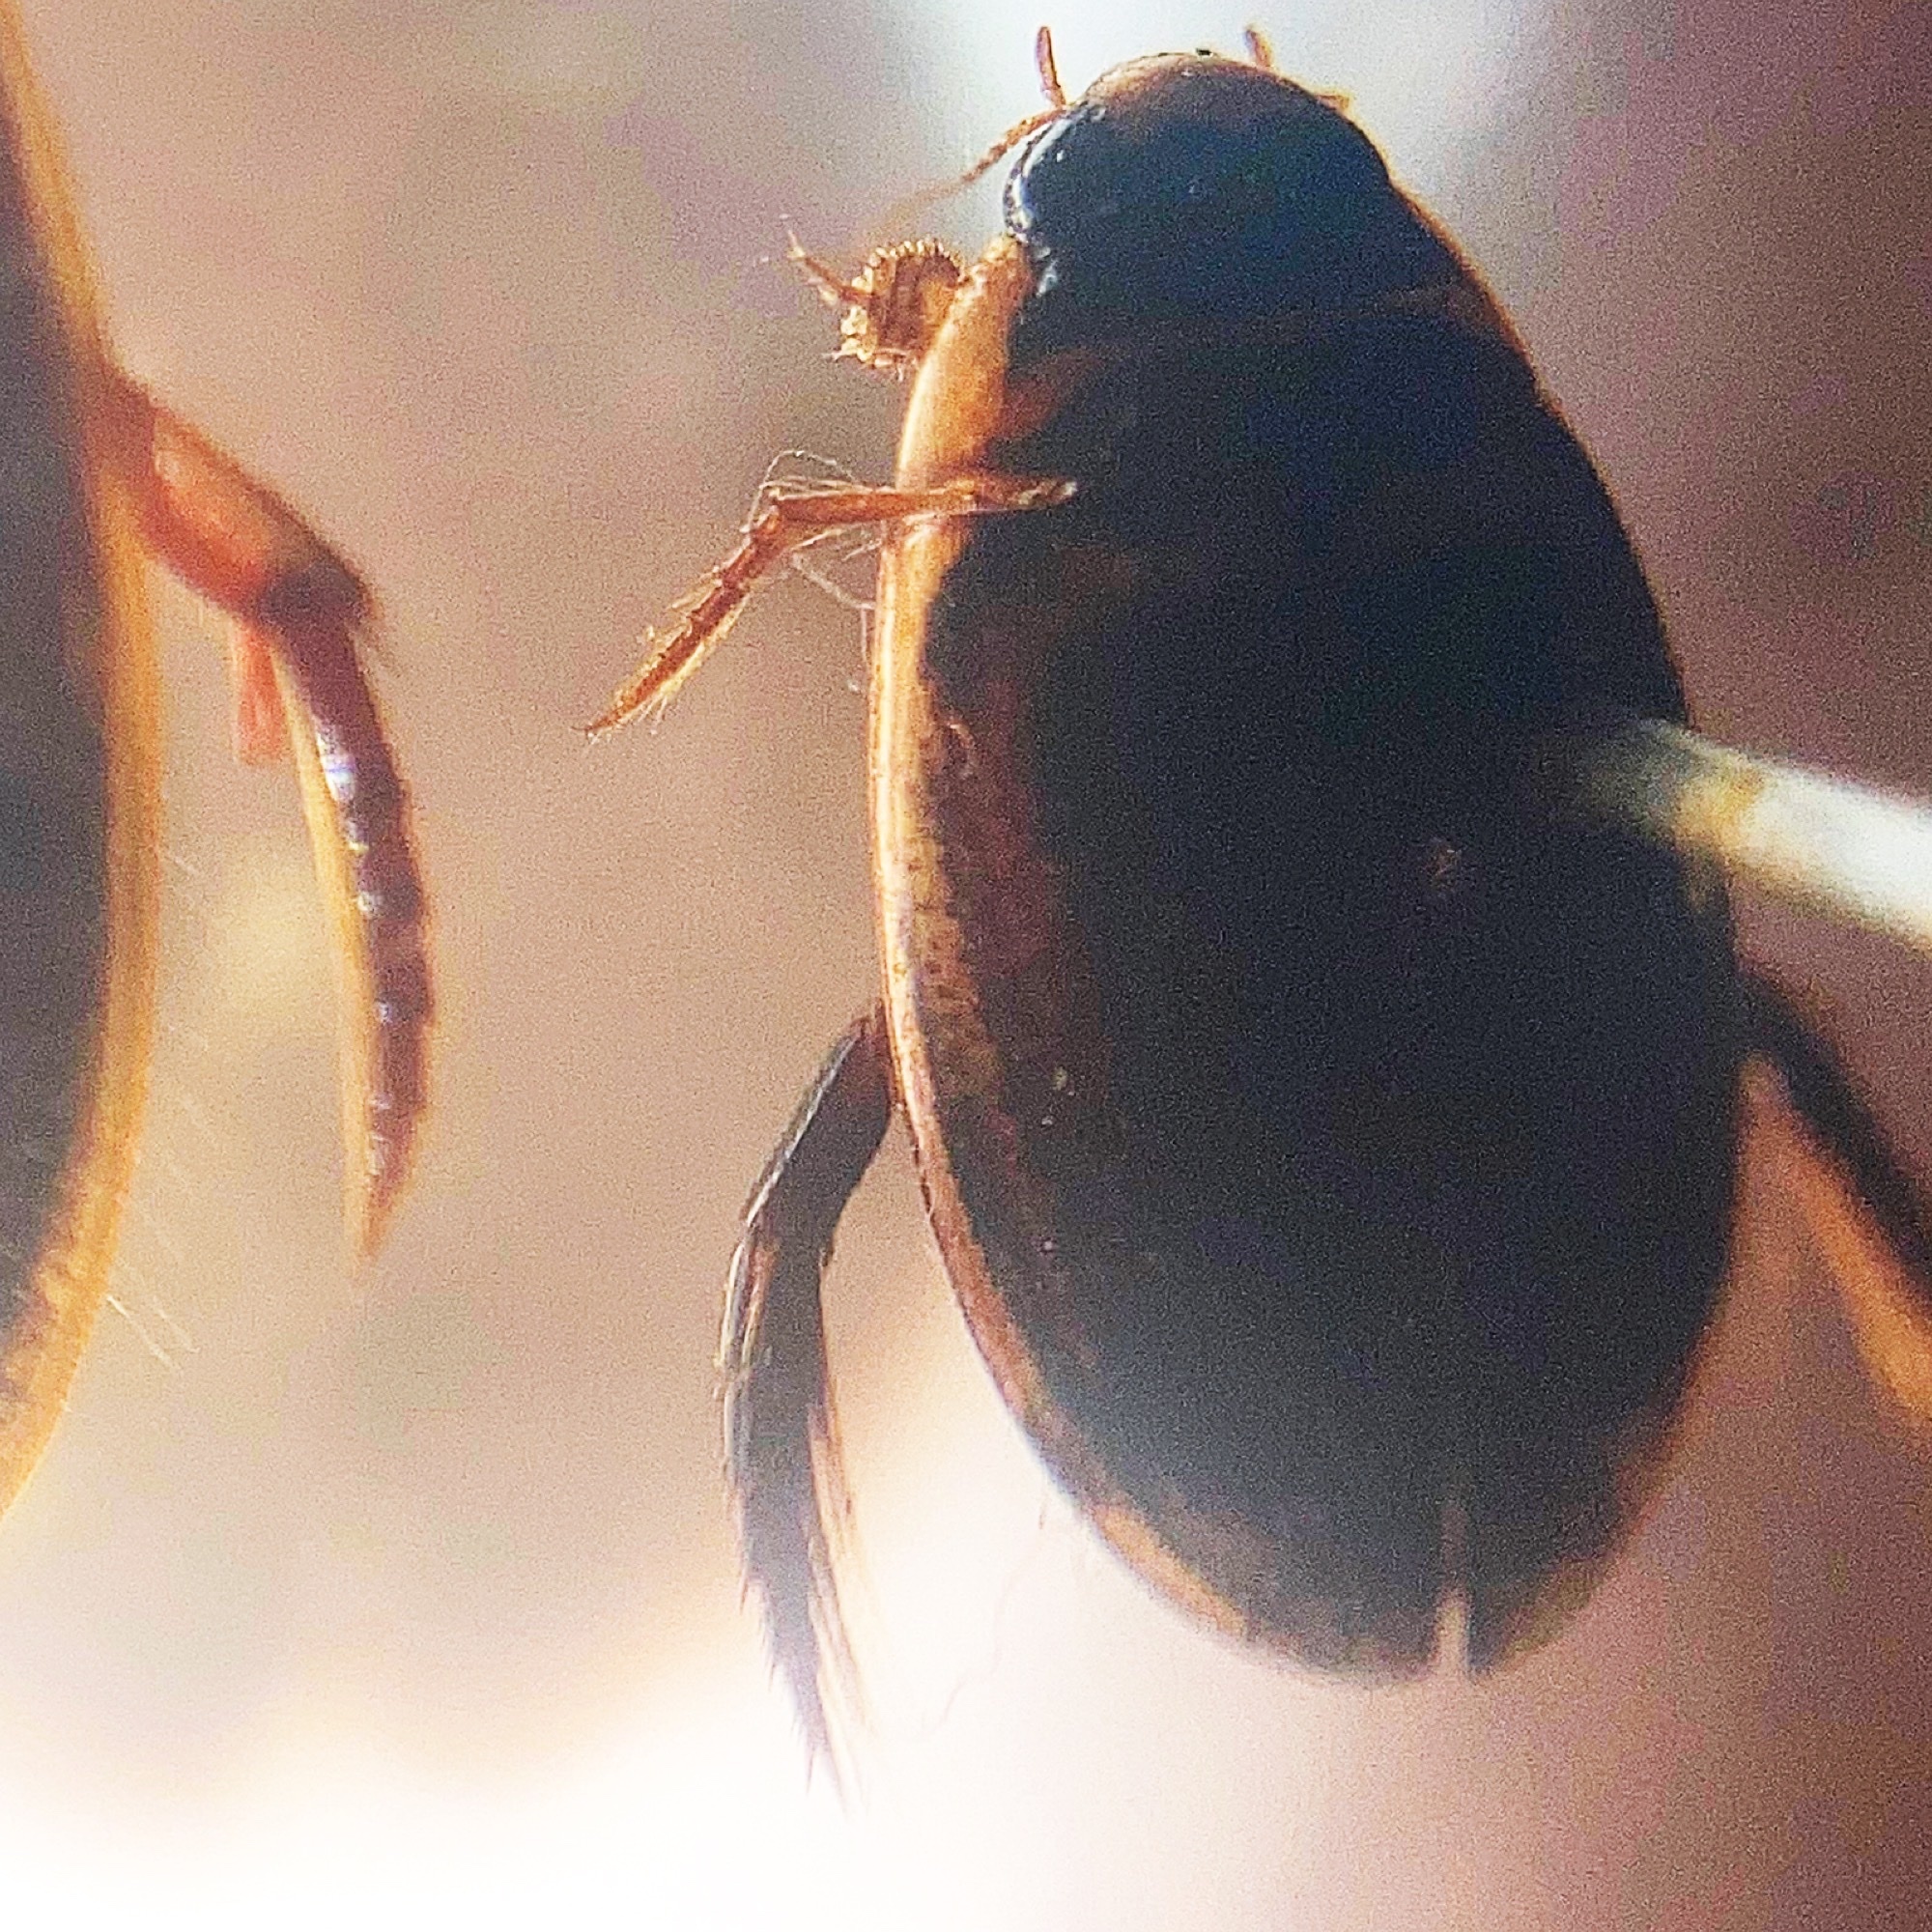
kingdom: Animalia
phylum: Arthropoda
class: Insecta
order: Coleoptera
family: Dytiscidae
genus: Thermonectus
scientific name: Thermonectus basillaris
